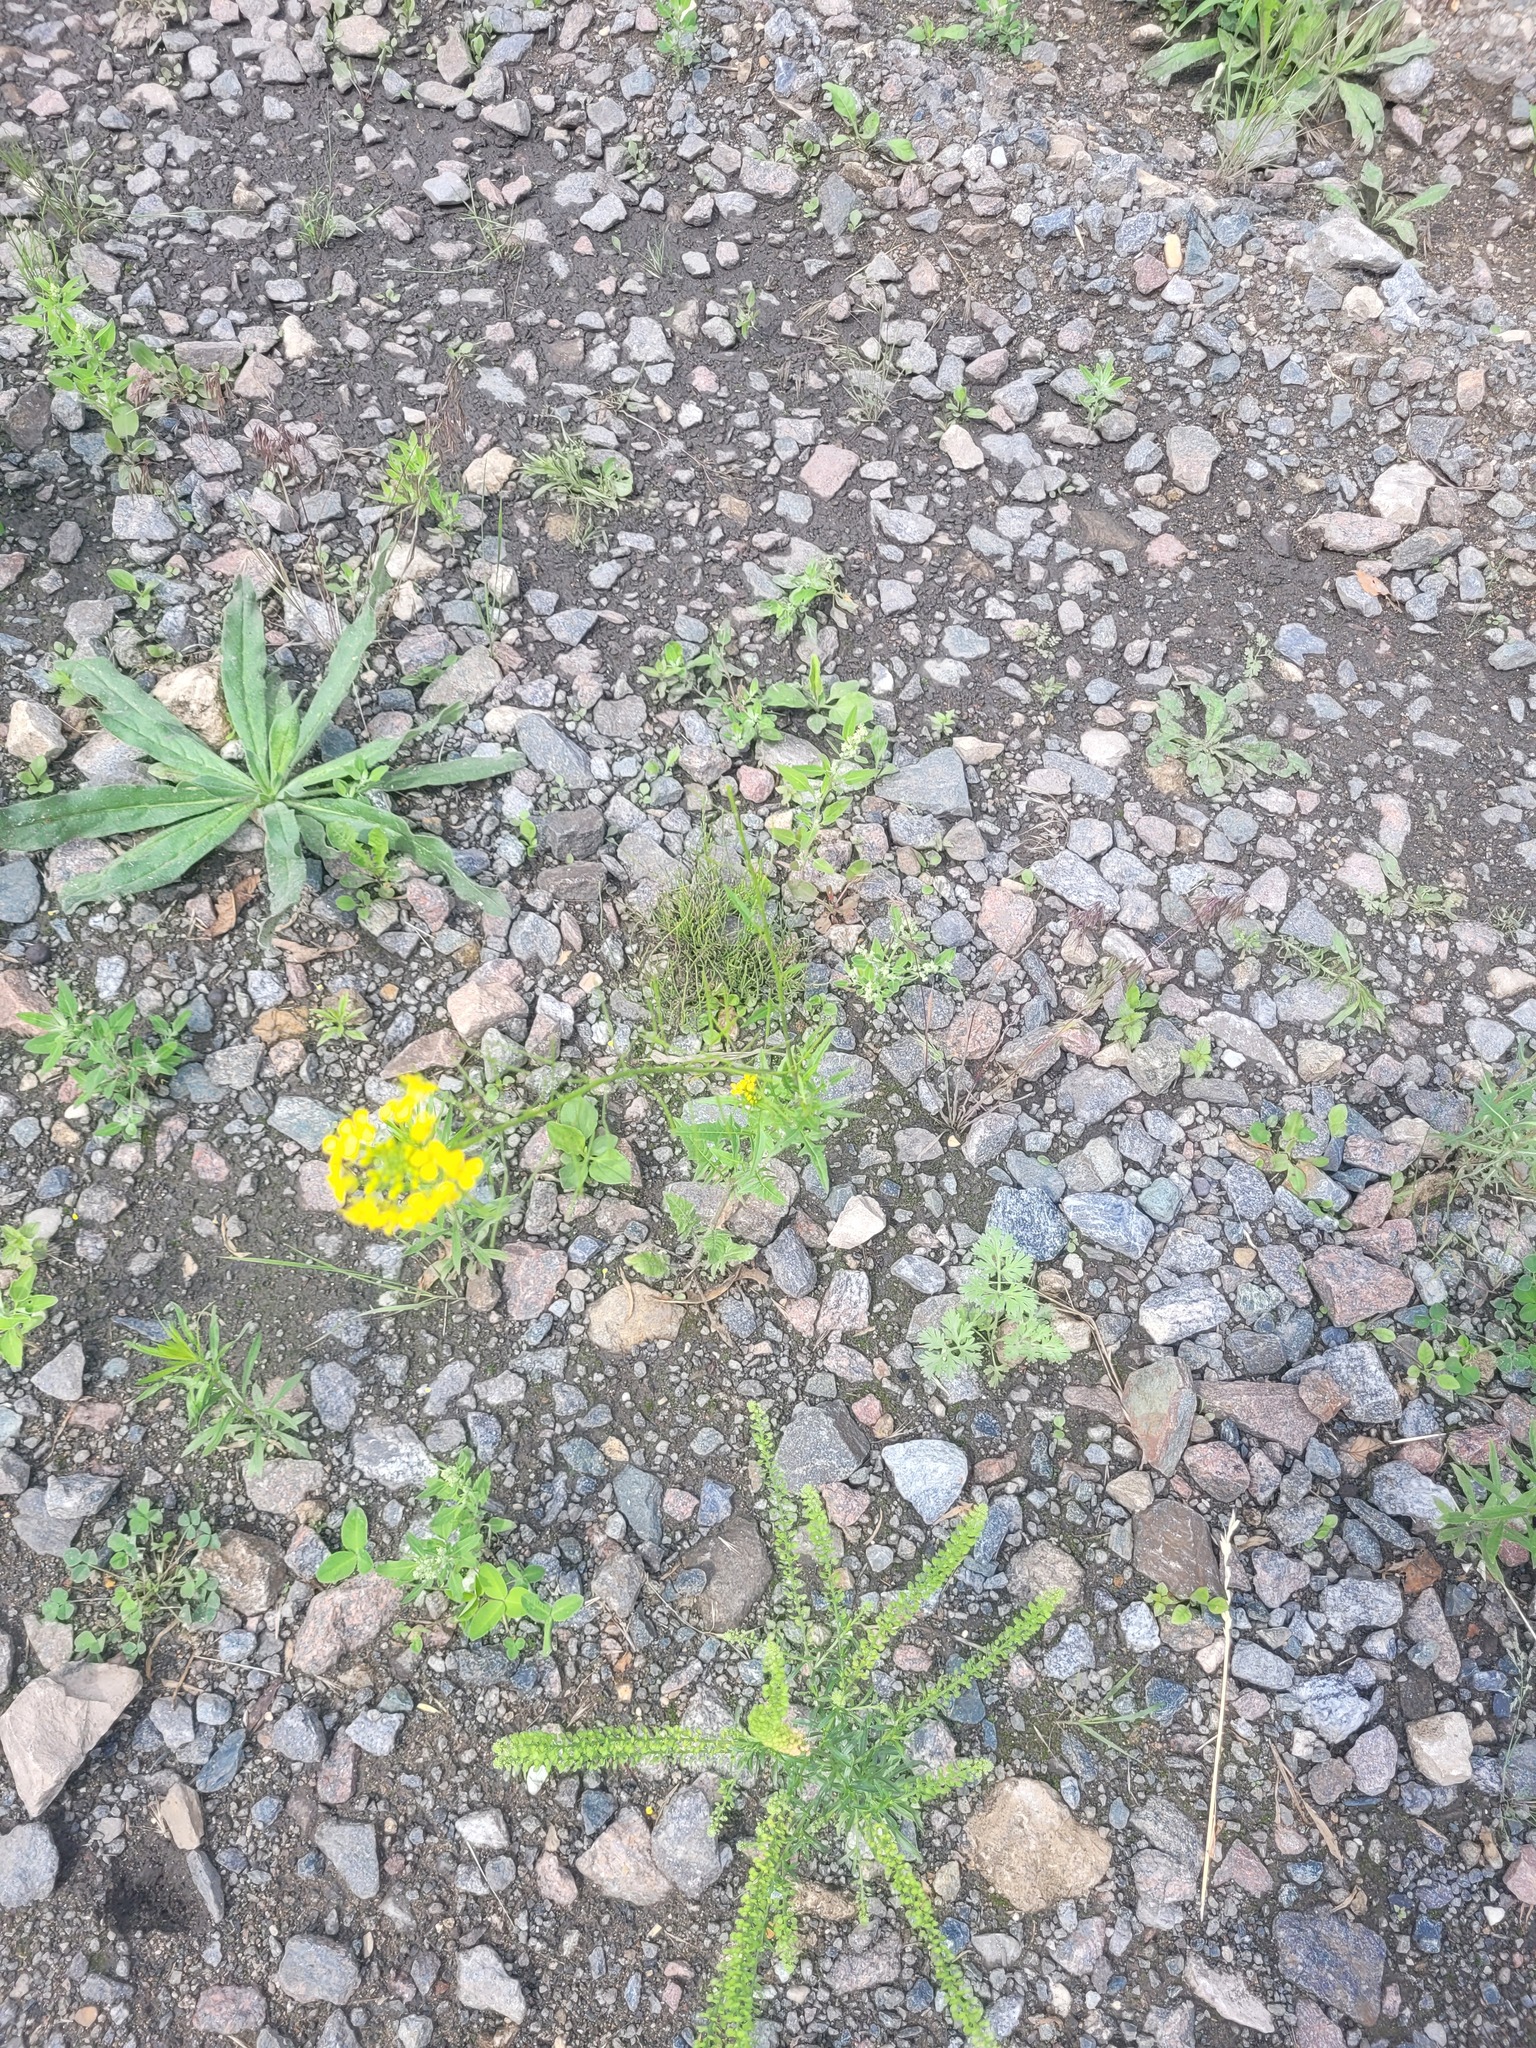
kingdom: Plantae
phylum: Tracheophyta
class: Magnoliopsida
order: Brassicales
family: Brassicaceae
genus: Sisymbrium
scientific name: Sisymbrium loeselii
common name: False london-rocket
